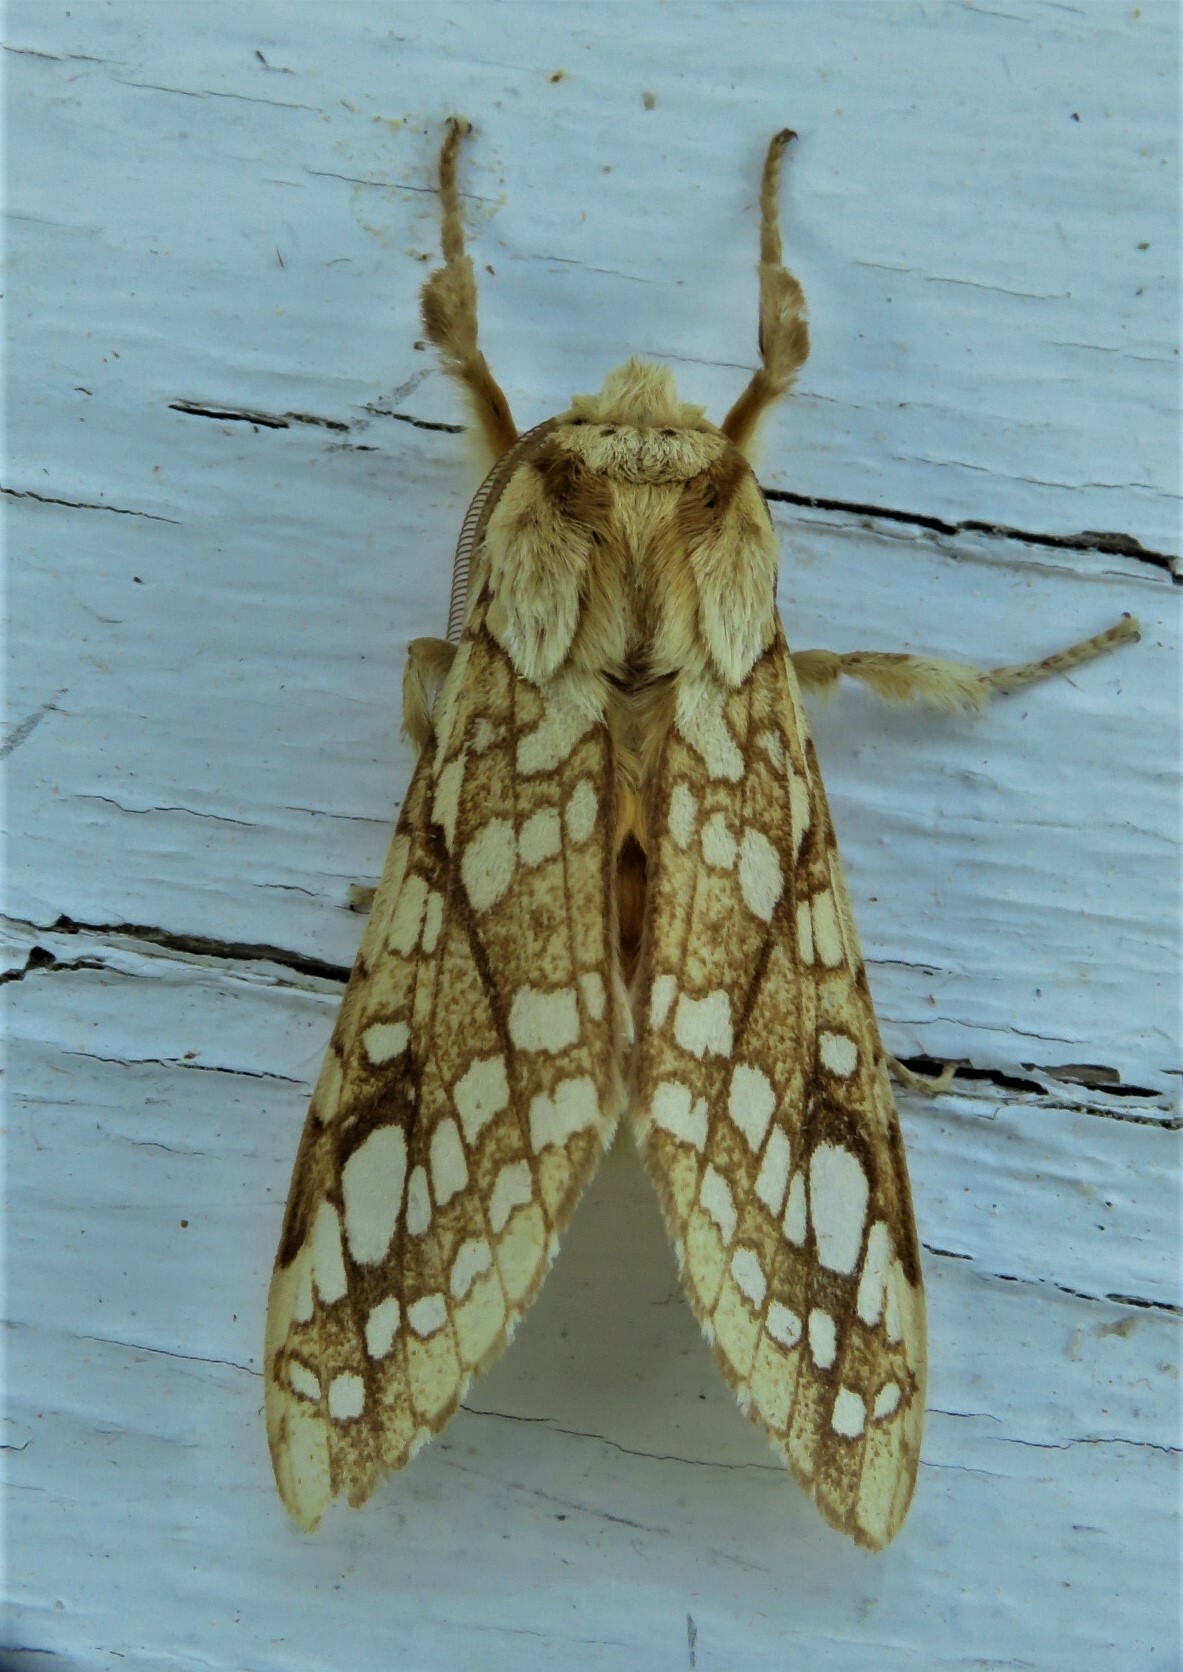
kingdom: Animalia
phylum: Arthropoda
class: Insecta
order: Lepidoptera
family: Erebidae
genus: Lophocampa
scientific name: Lophocampa caryae
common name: Hickory tussock moth
